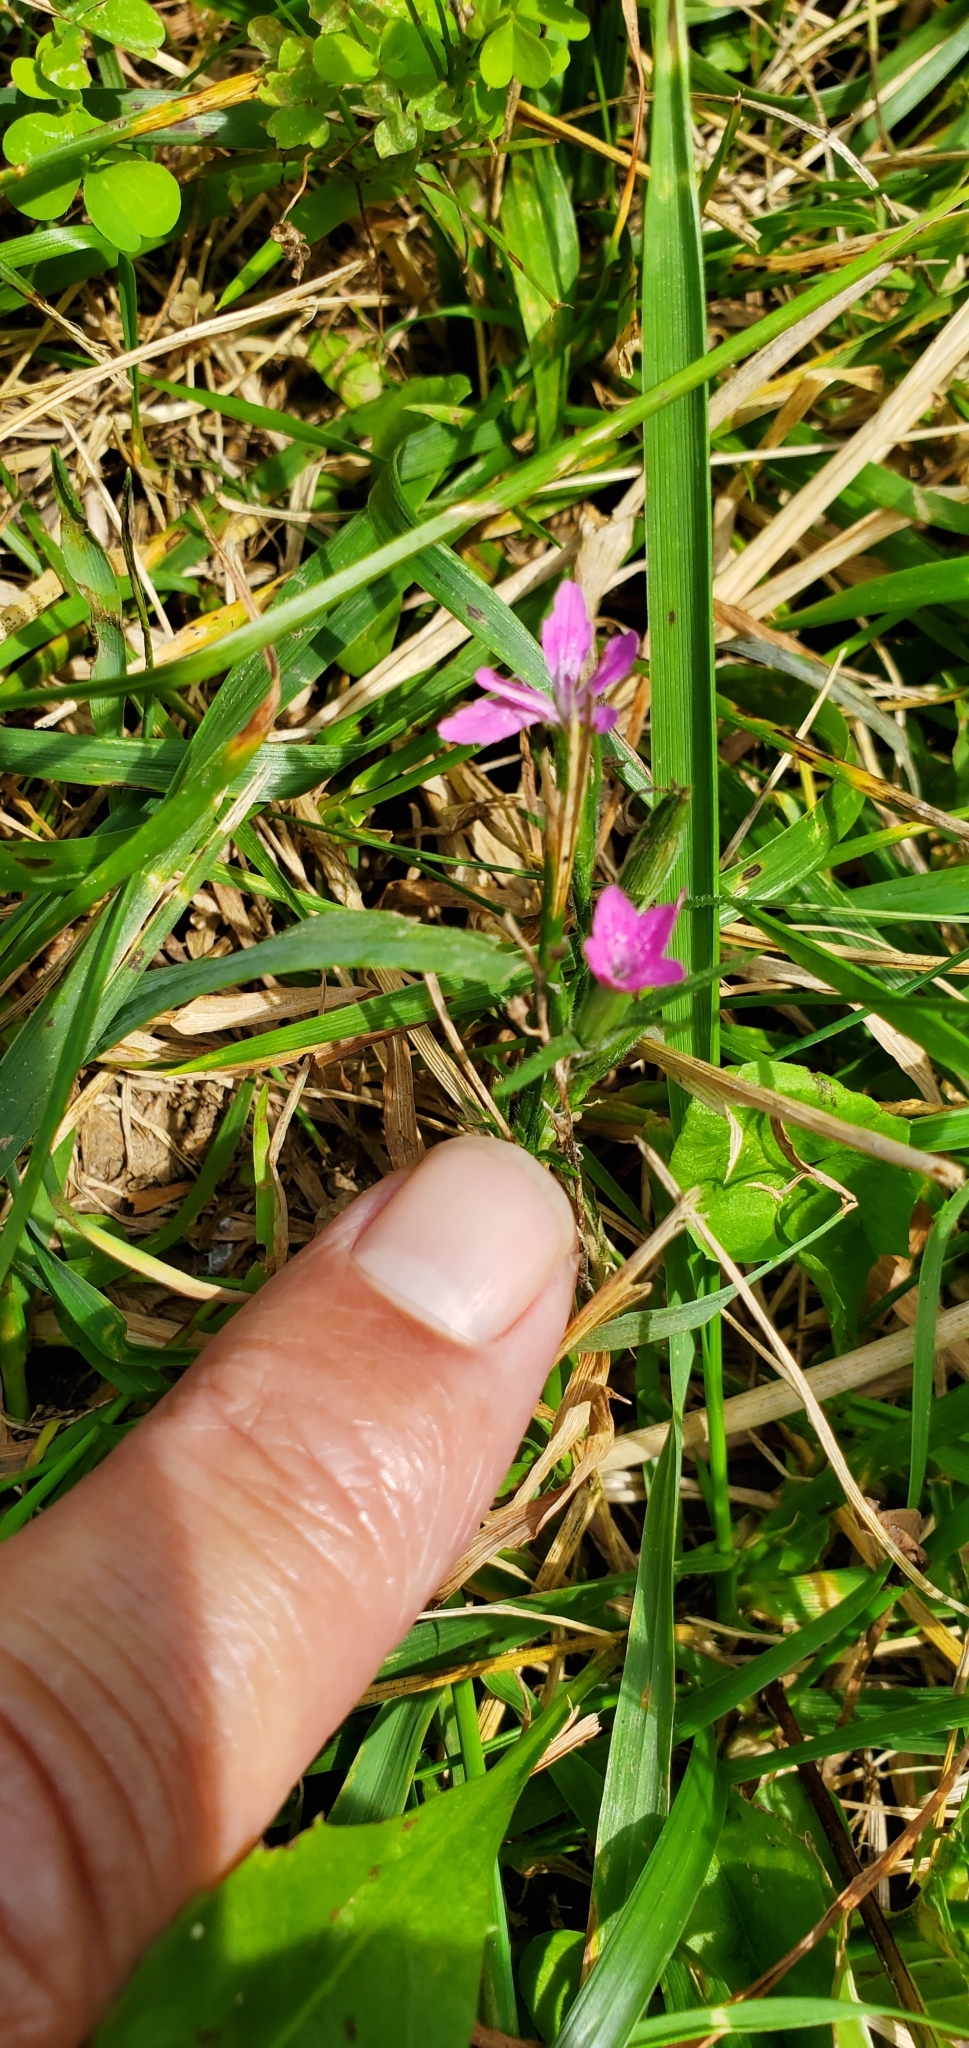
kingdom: Plantae
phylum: Tracheophyta
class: Magnoliopsida
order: Caryophyllales
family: Caryophyllaceae
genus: Dianthus
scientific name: Dianthus armeria
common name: Deptford pink
